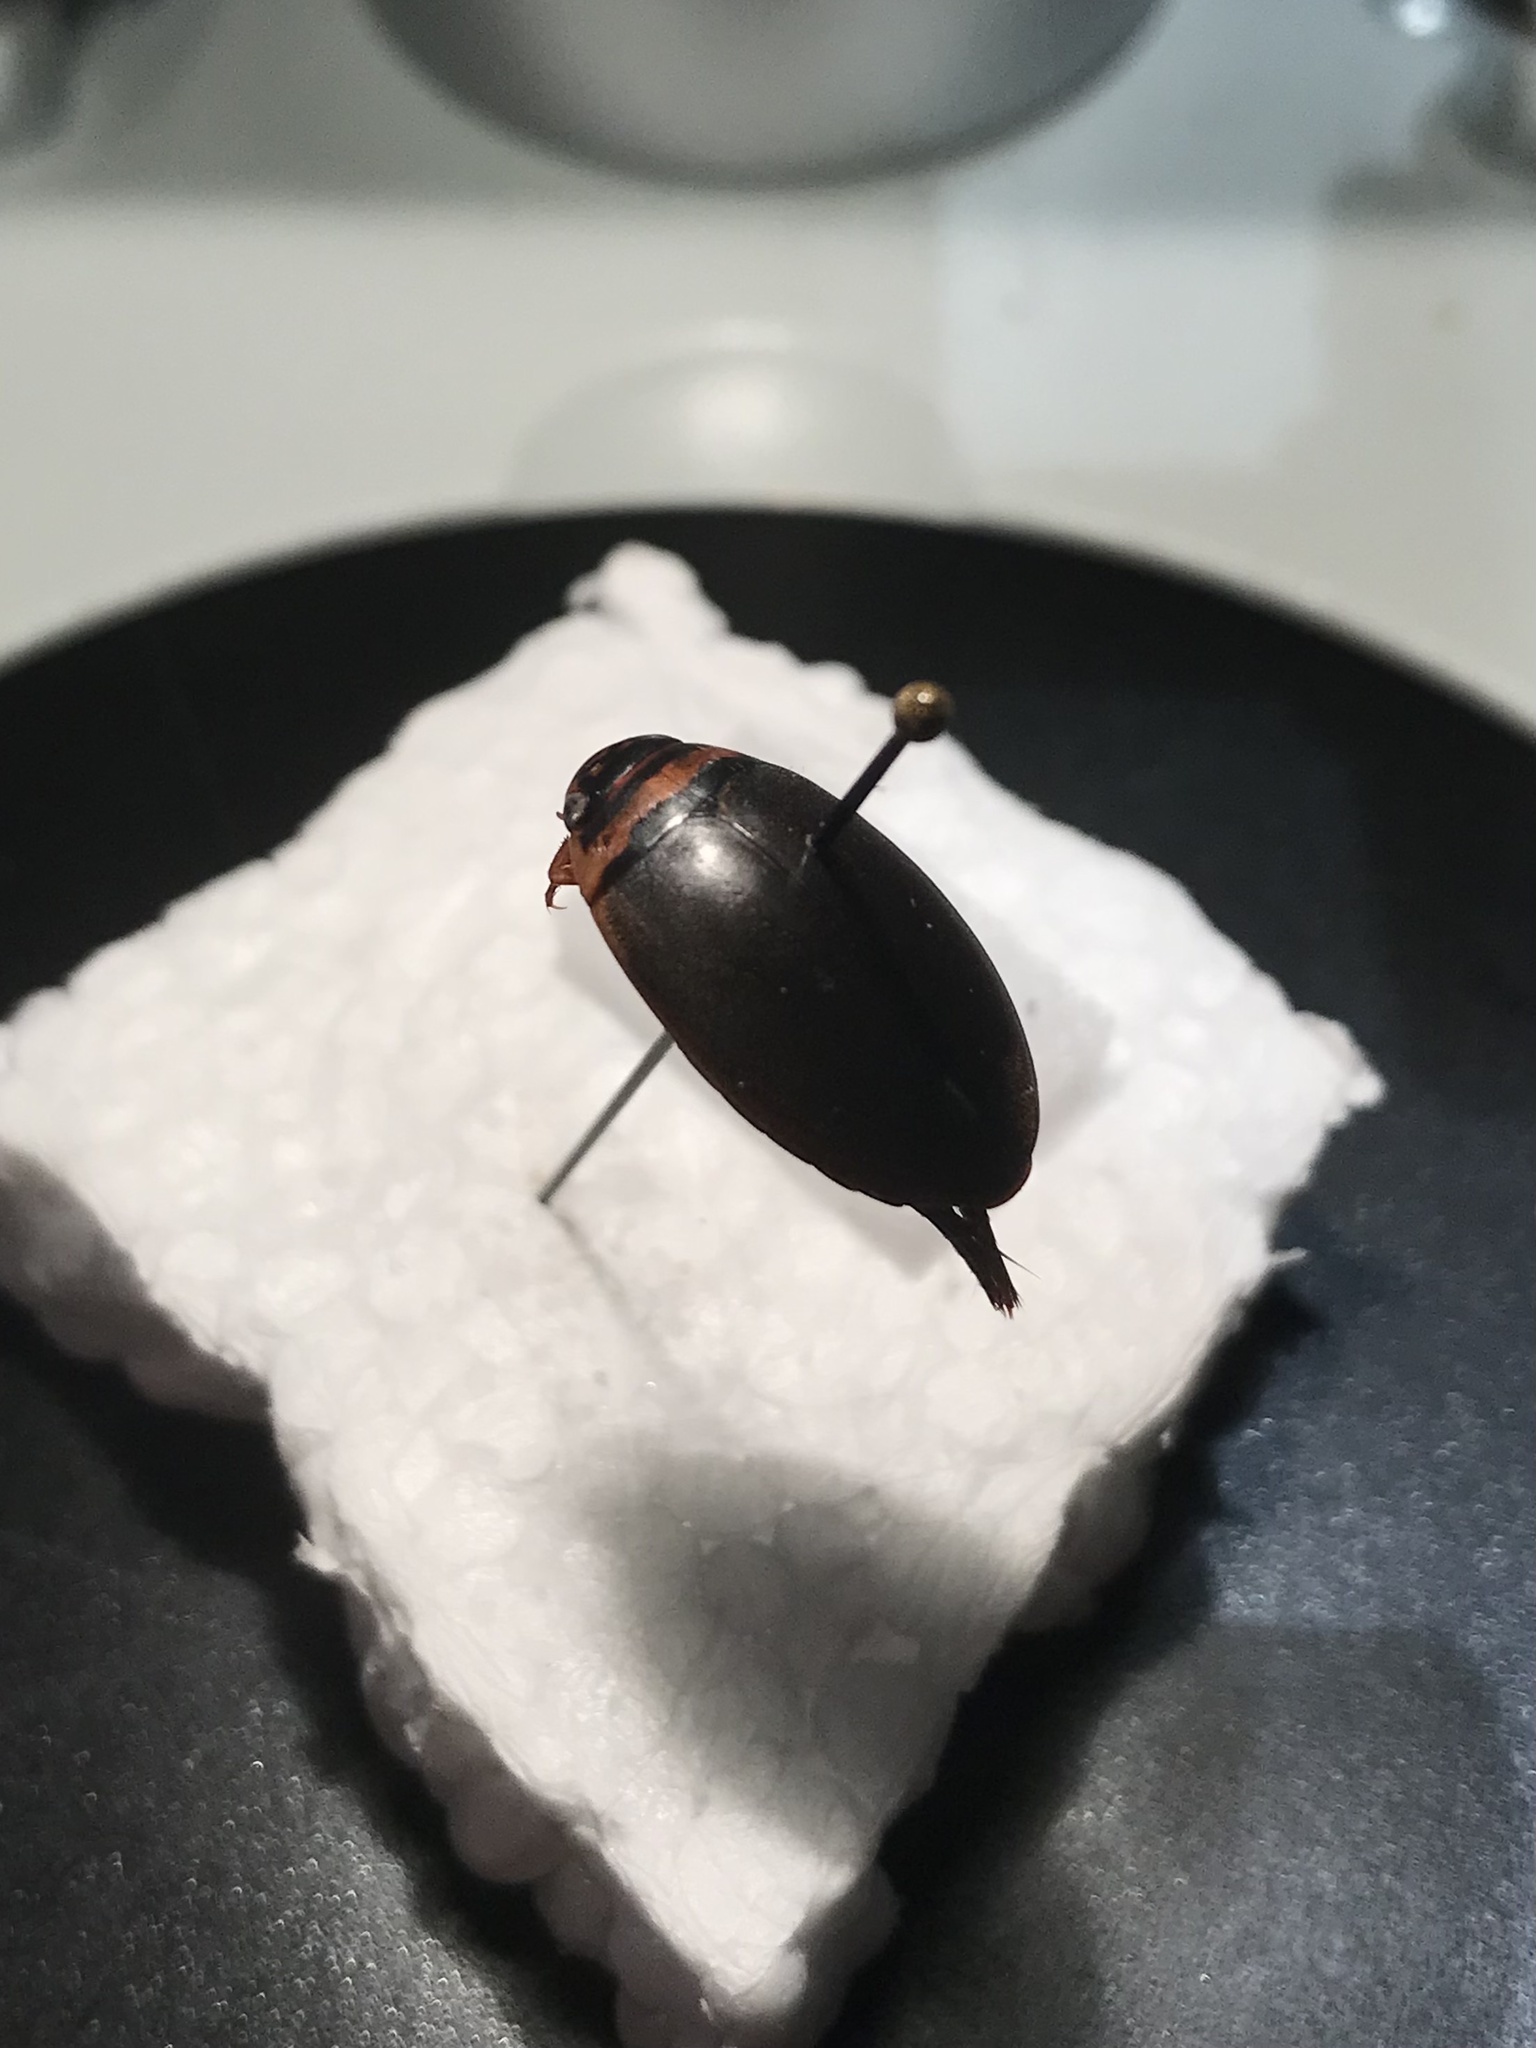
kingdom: Animalia
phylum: Arthropoda
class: Insecta
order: Coleoptera
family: Dytiscidae
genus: Graphoderus
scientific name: Graphoderus
